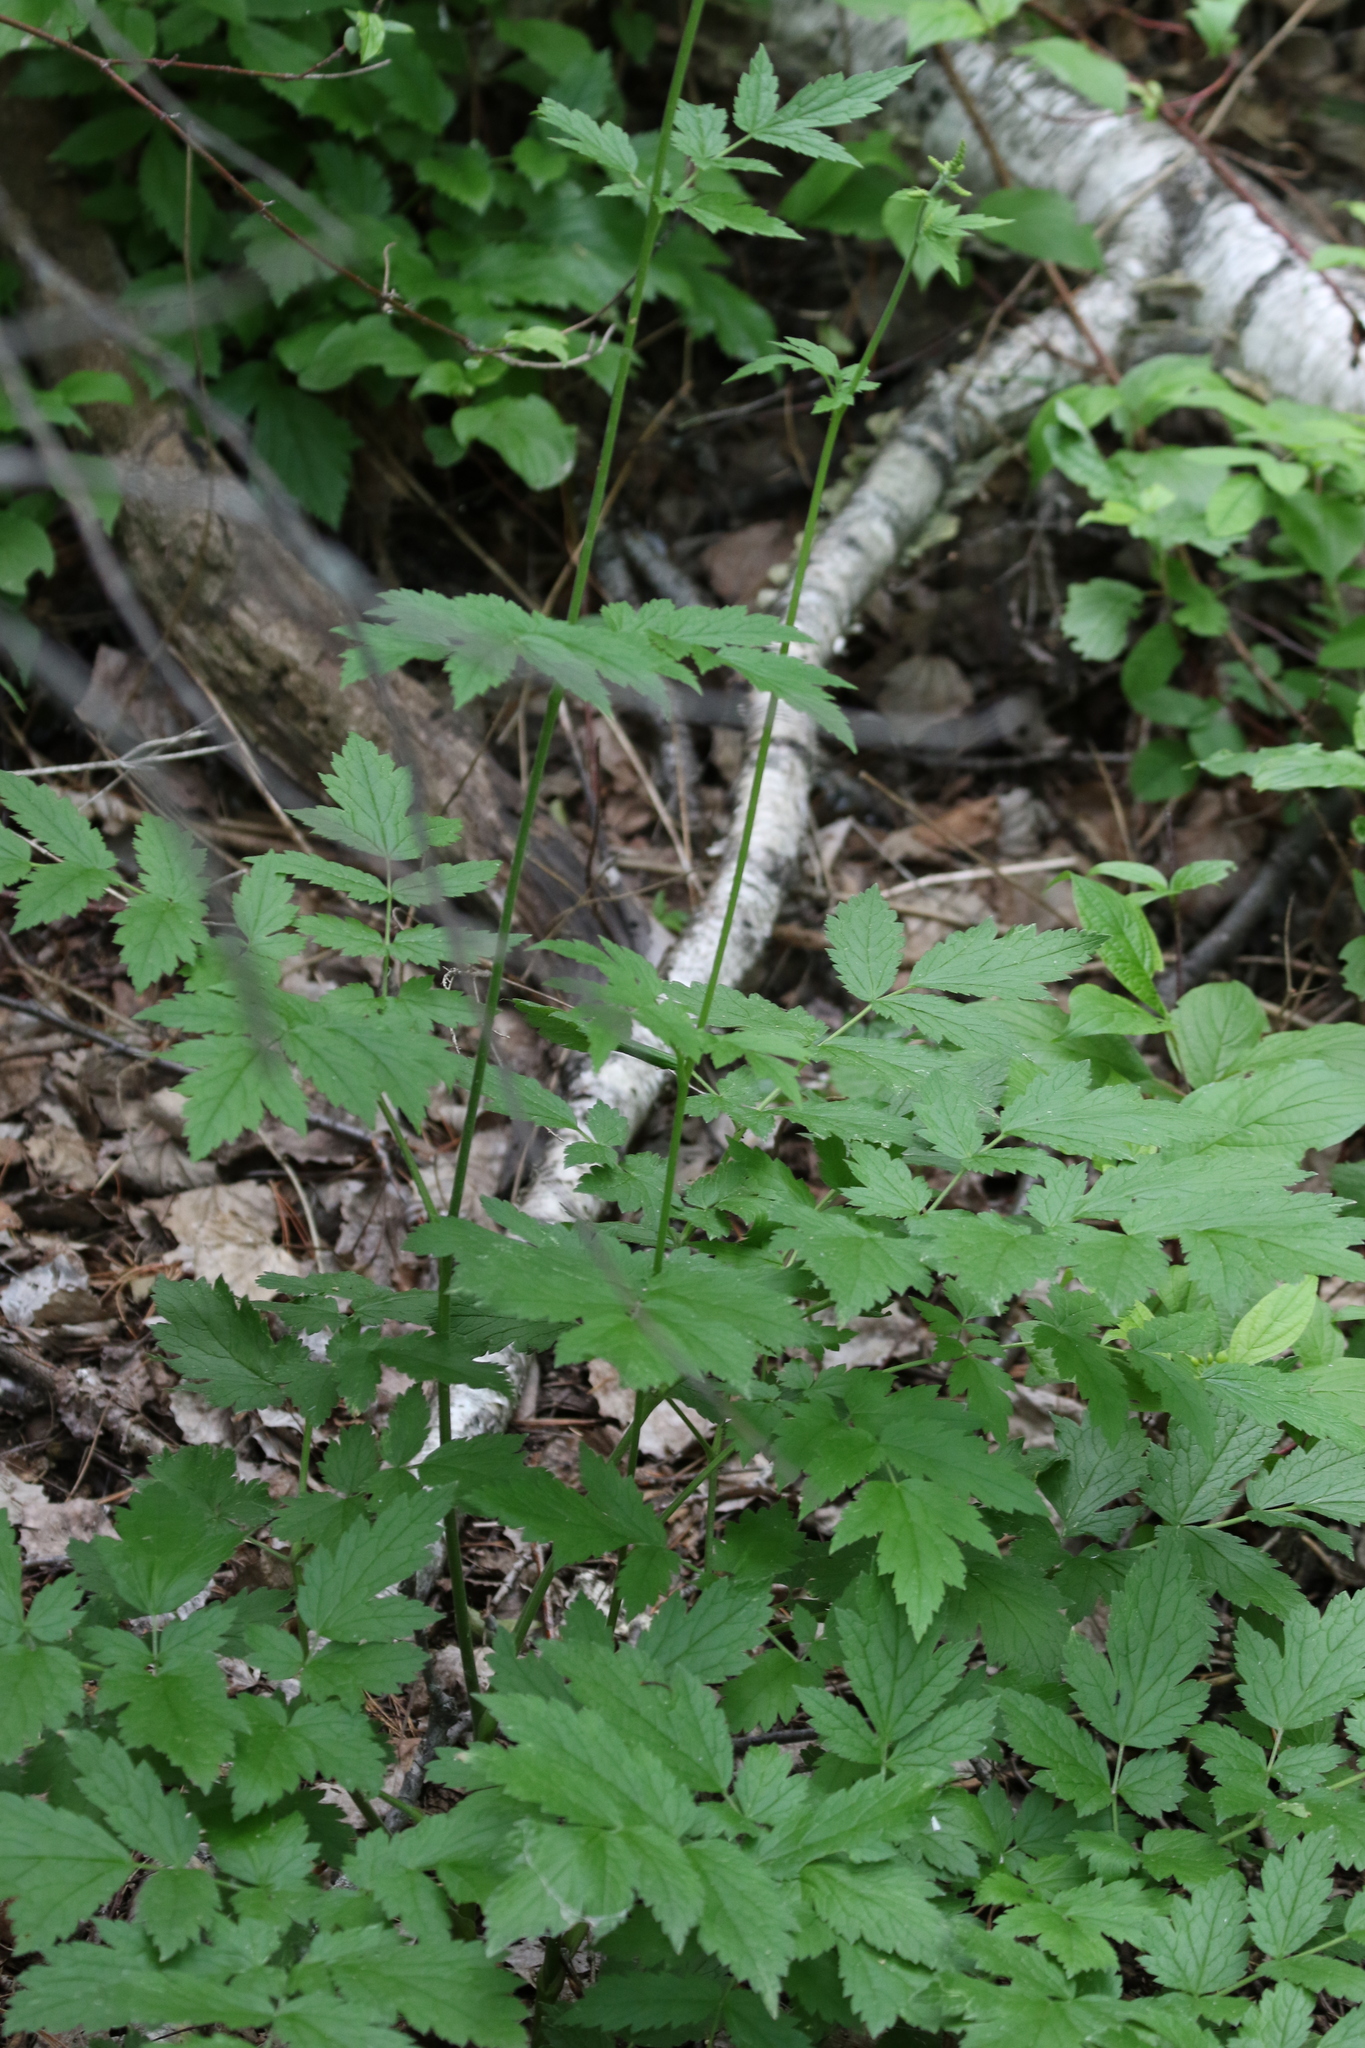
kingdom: Plantae
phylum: Tracheophyta
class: Magnoliopsida
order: Ranunculales
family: Ranunculaceae
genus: Actaea
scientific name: Actaea cimicifuga
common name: Chinese cimicifuga
